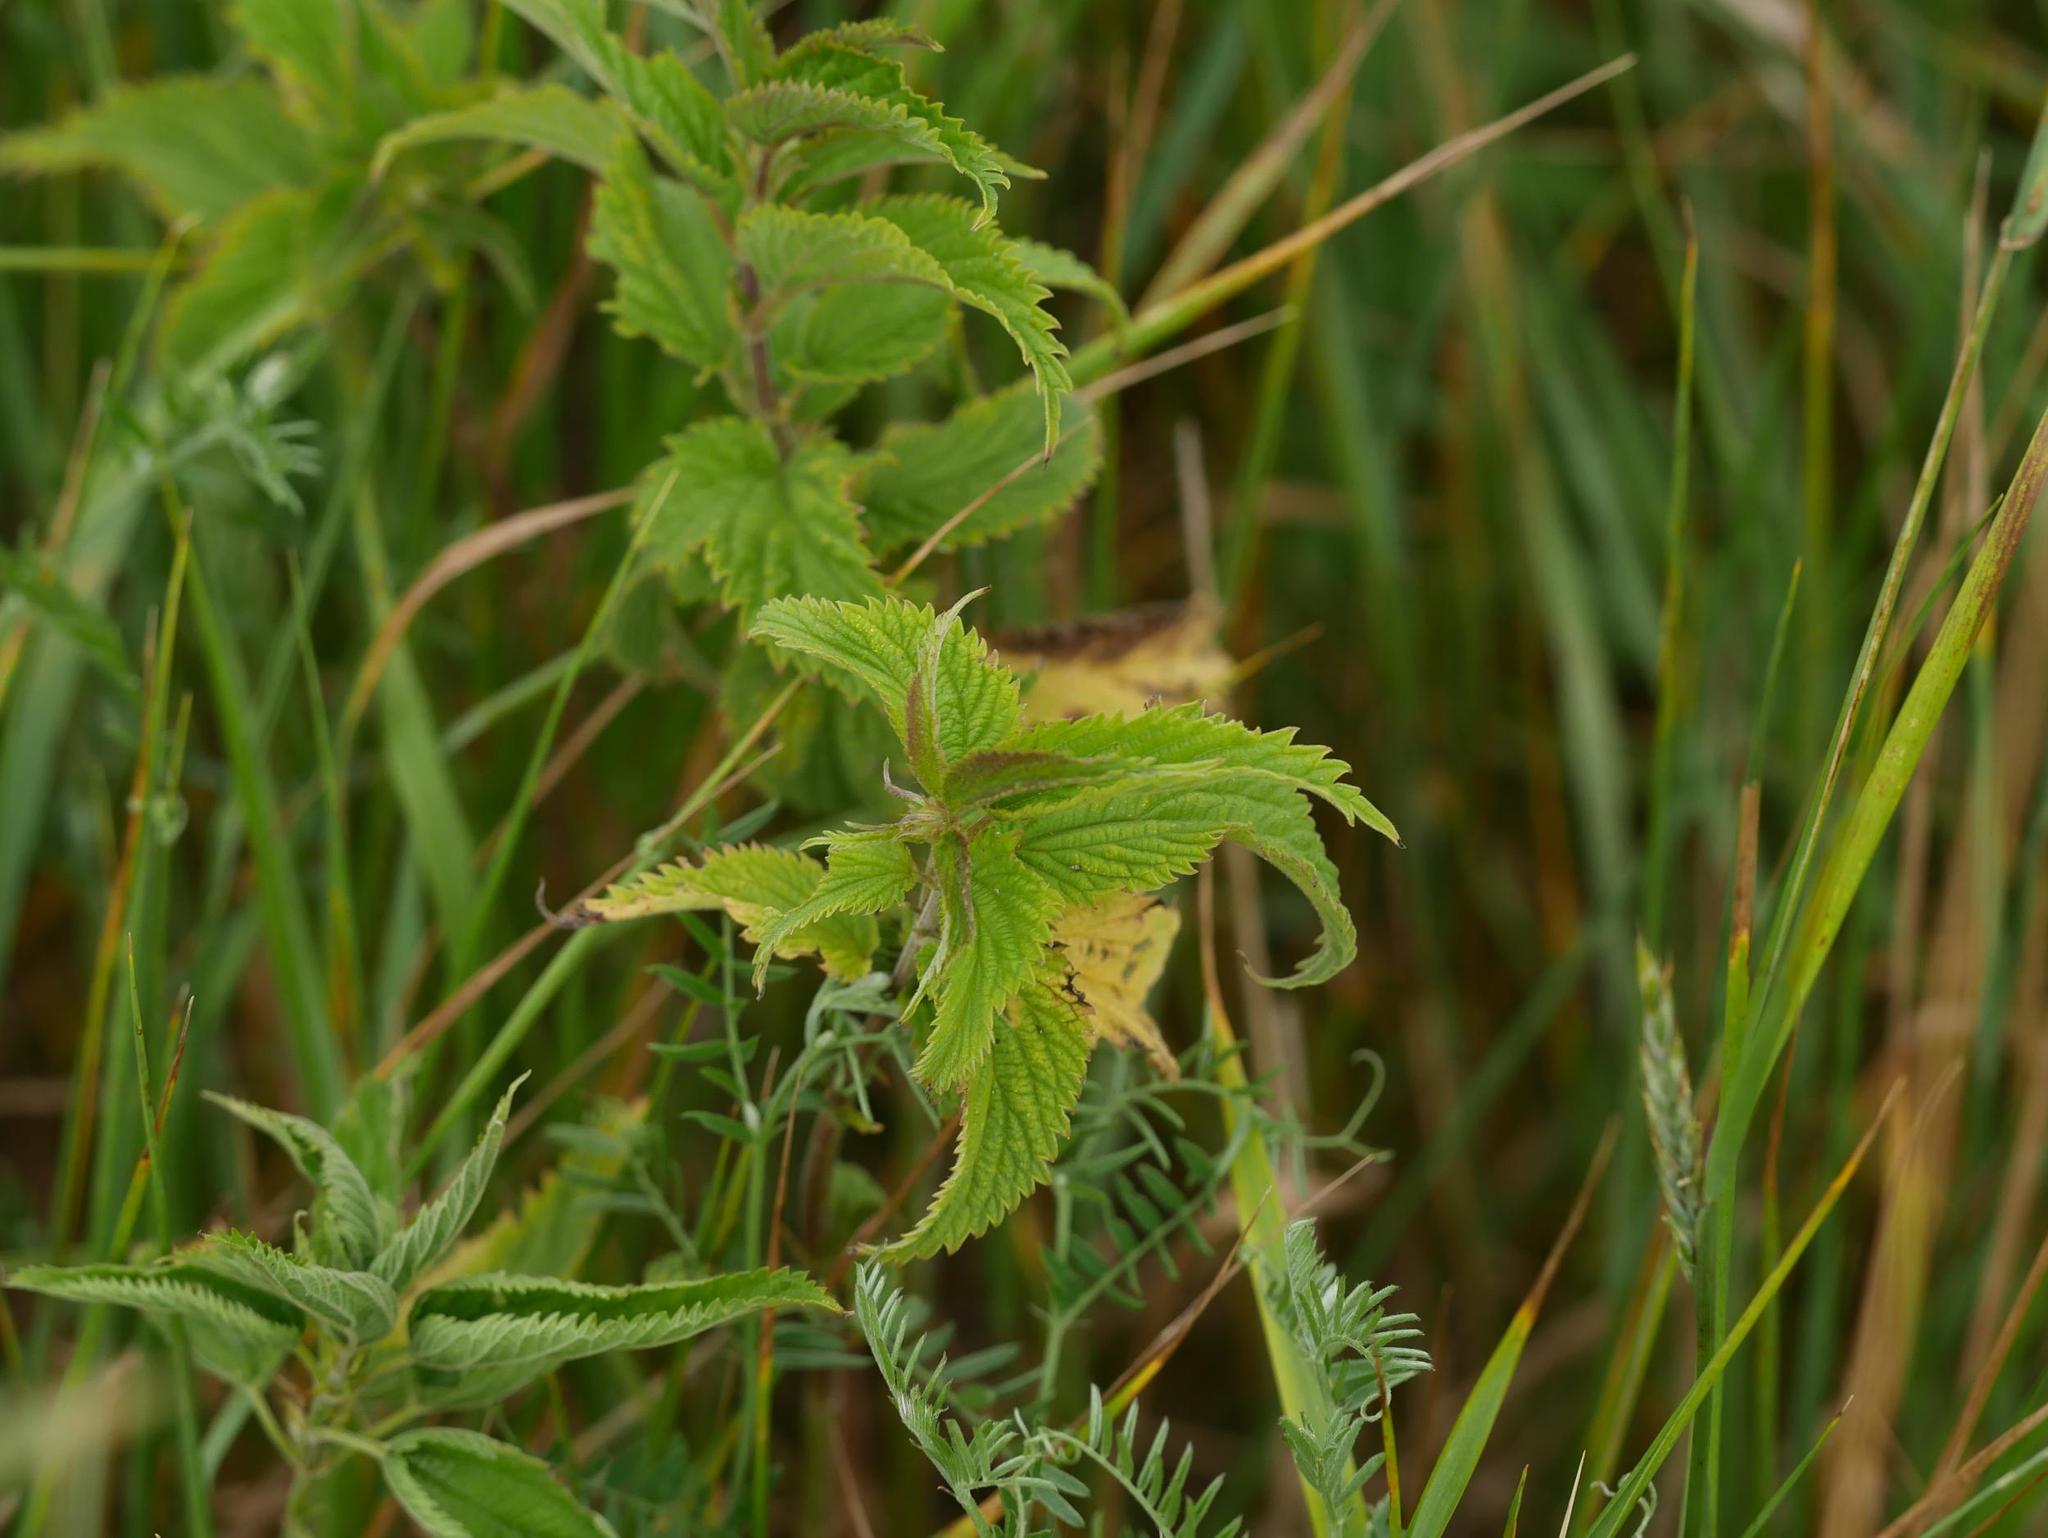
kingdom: Plantae
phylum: Tracheophyta
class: Magnoliopsida
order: Rosales
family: Urticaceae
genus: Urtica
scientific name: Urtica dioica
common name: Common nettle
